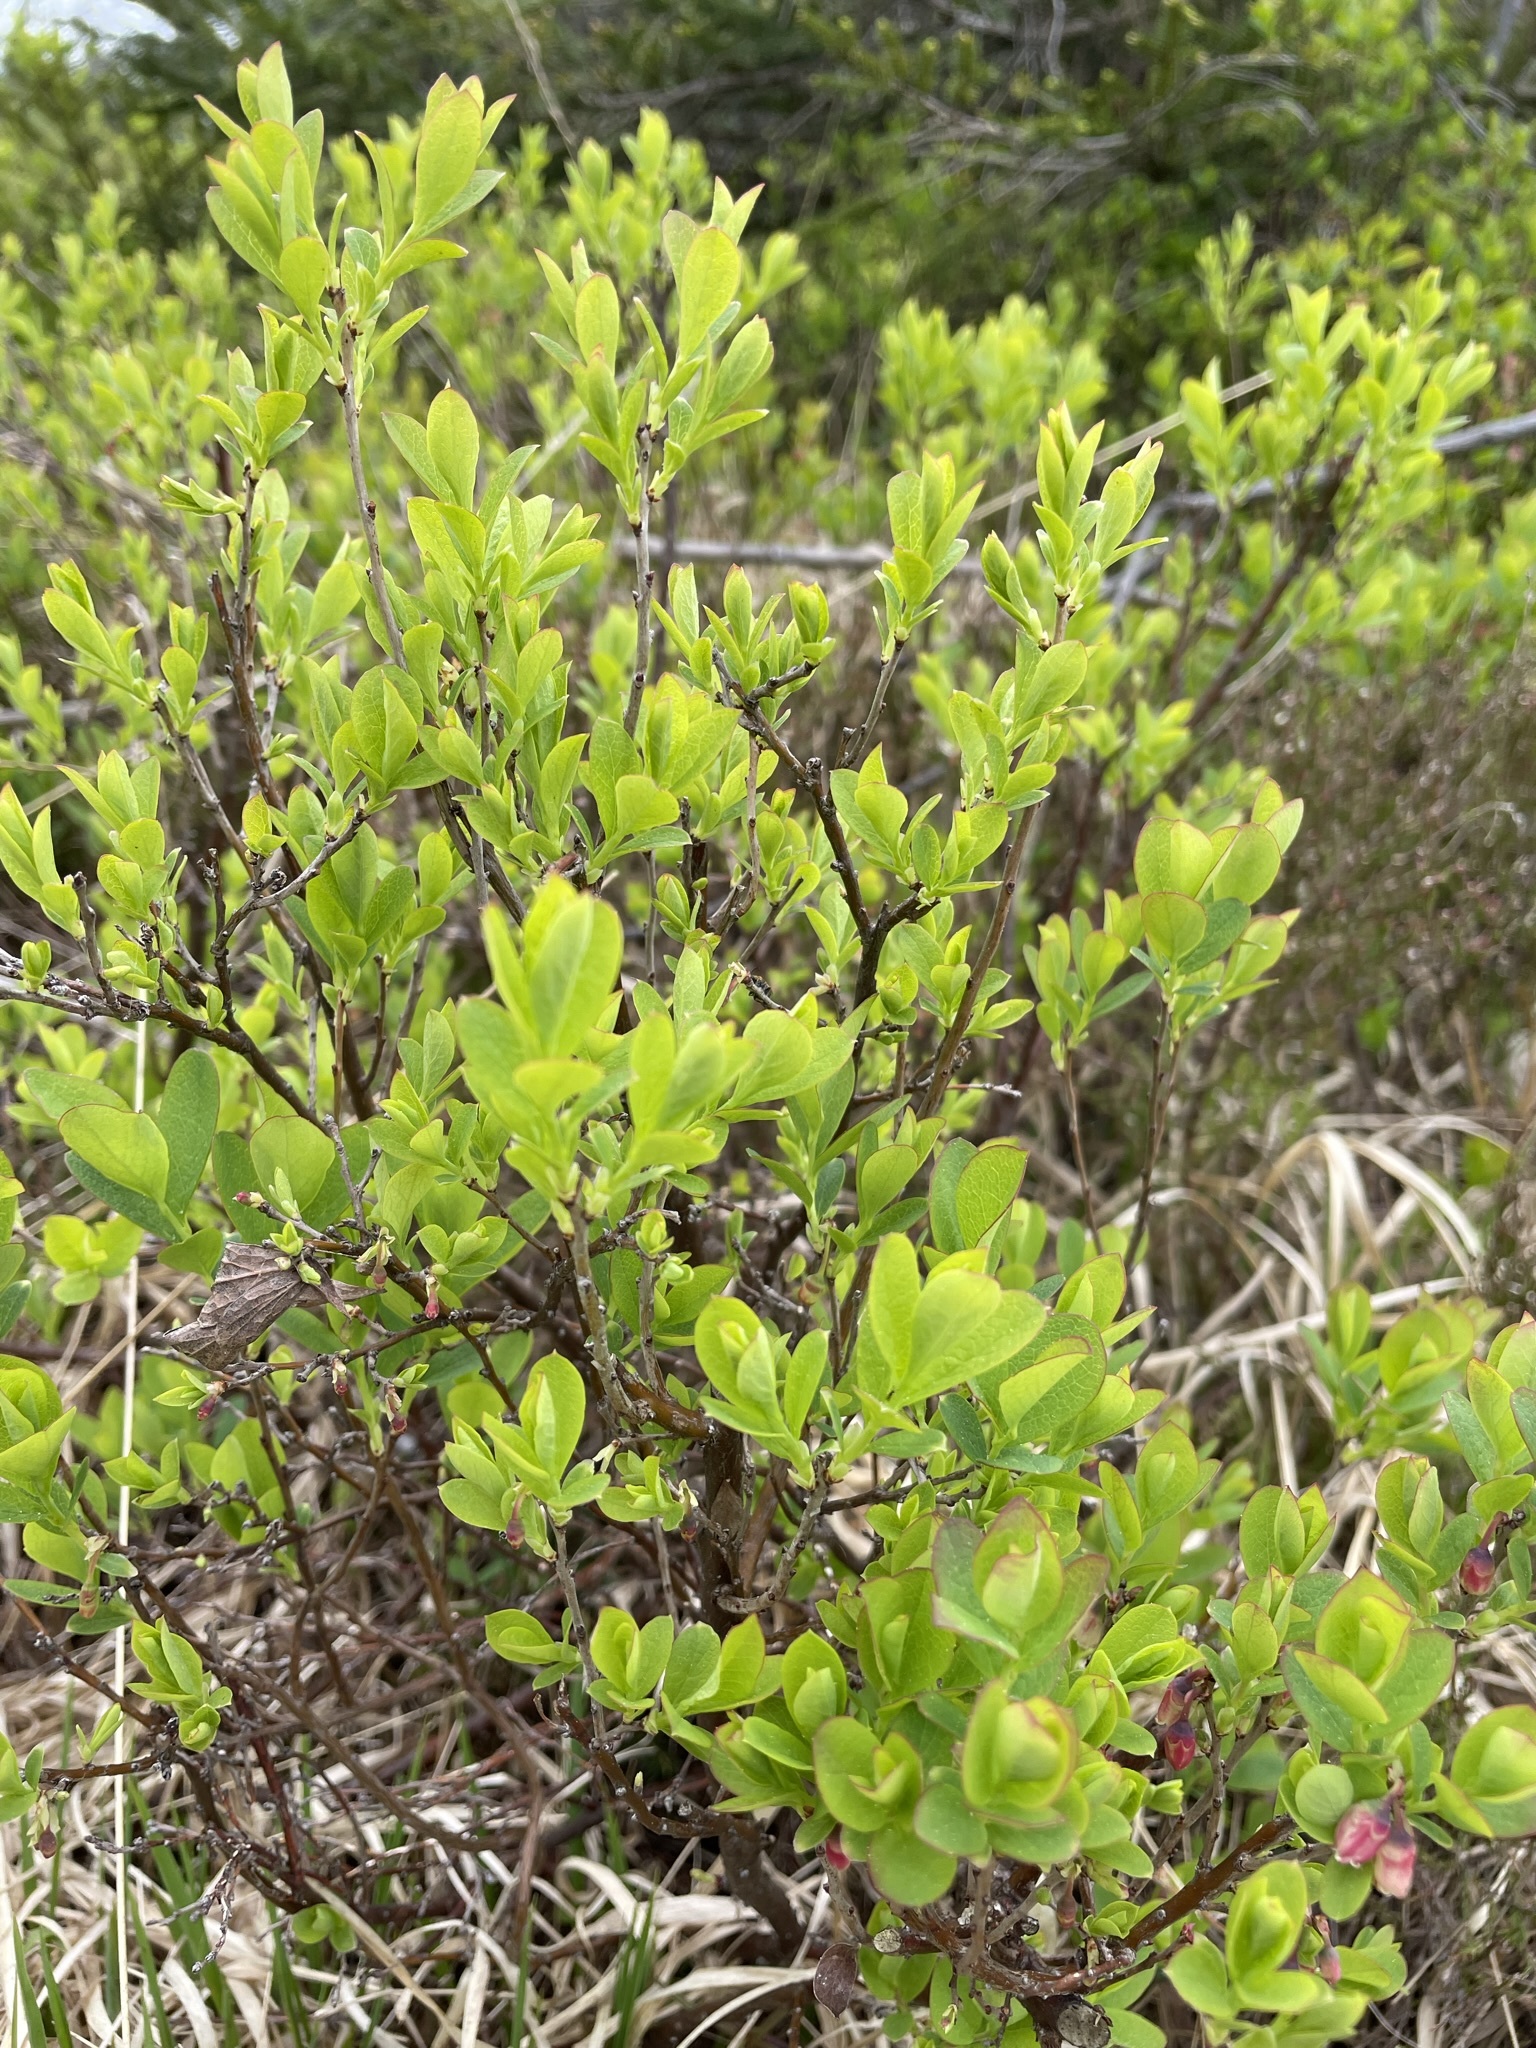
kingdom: Plantae
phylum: Tracheophyta
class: Magnoliopsida
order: Ericales
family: Ericaceae
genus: Vaccinium
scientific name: Vaccinium uliginosum
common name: Bog bilberry
